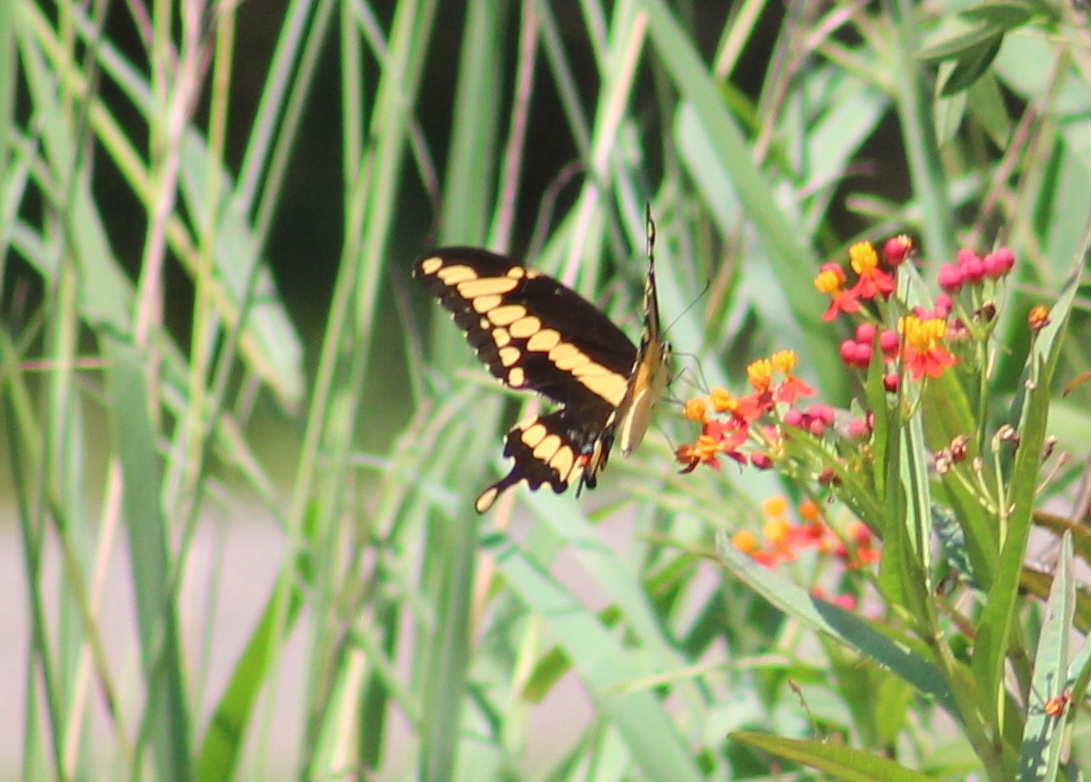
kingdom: Animalia
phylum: Arthropoda
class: Insecta
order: Lepidoptera
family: Papilionidae
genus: Papilio
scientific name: Papilio cresphontes
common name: Giant swallowtail
